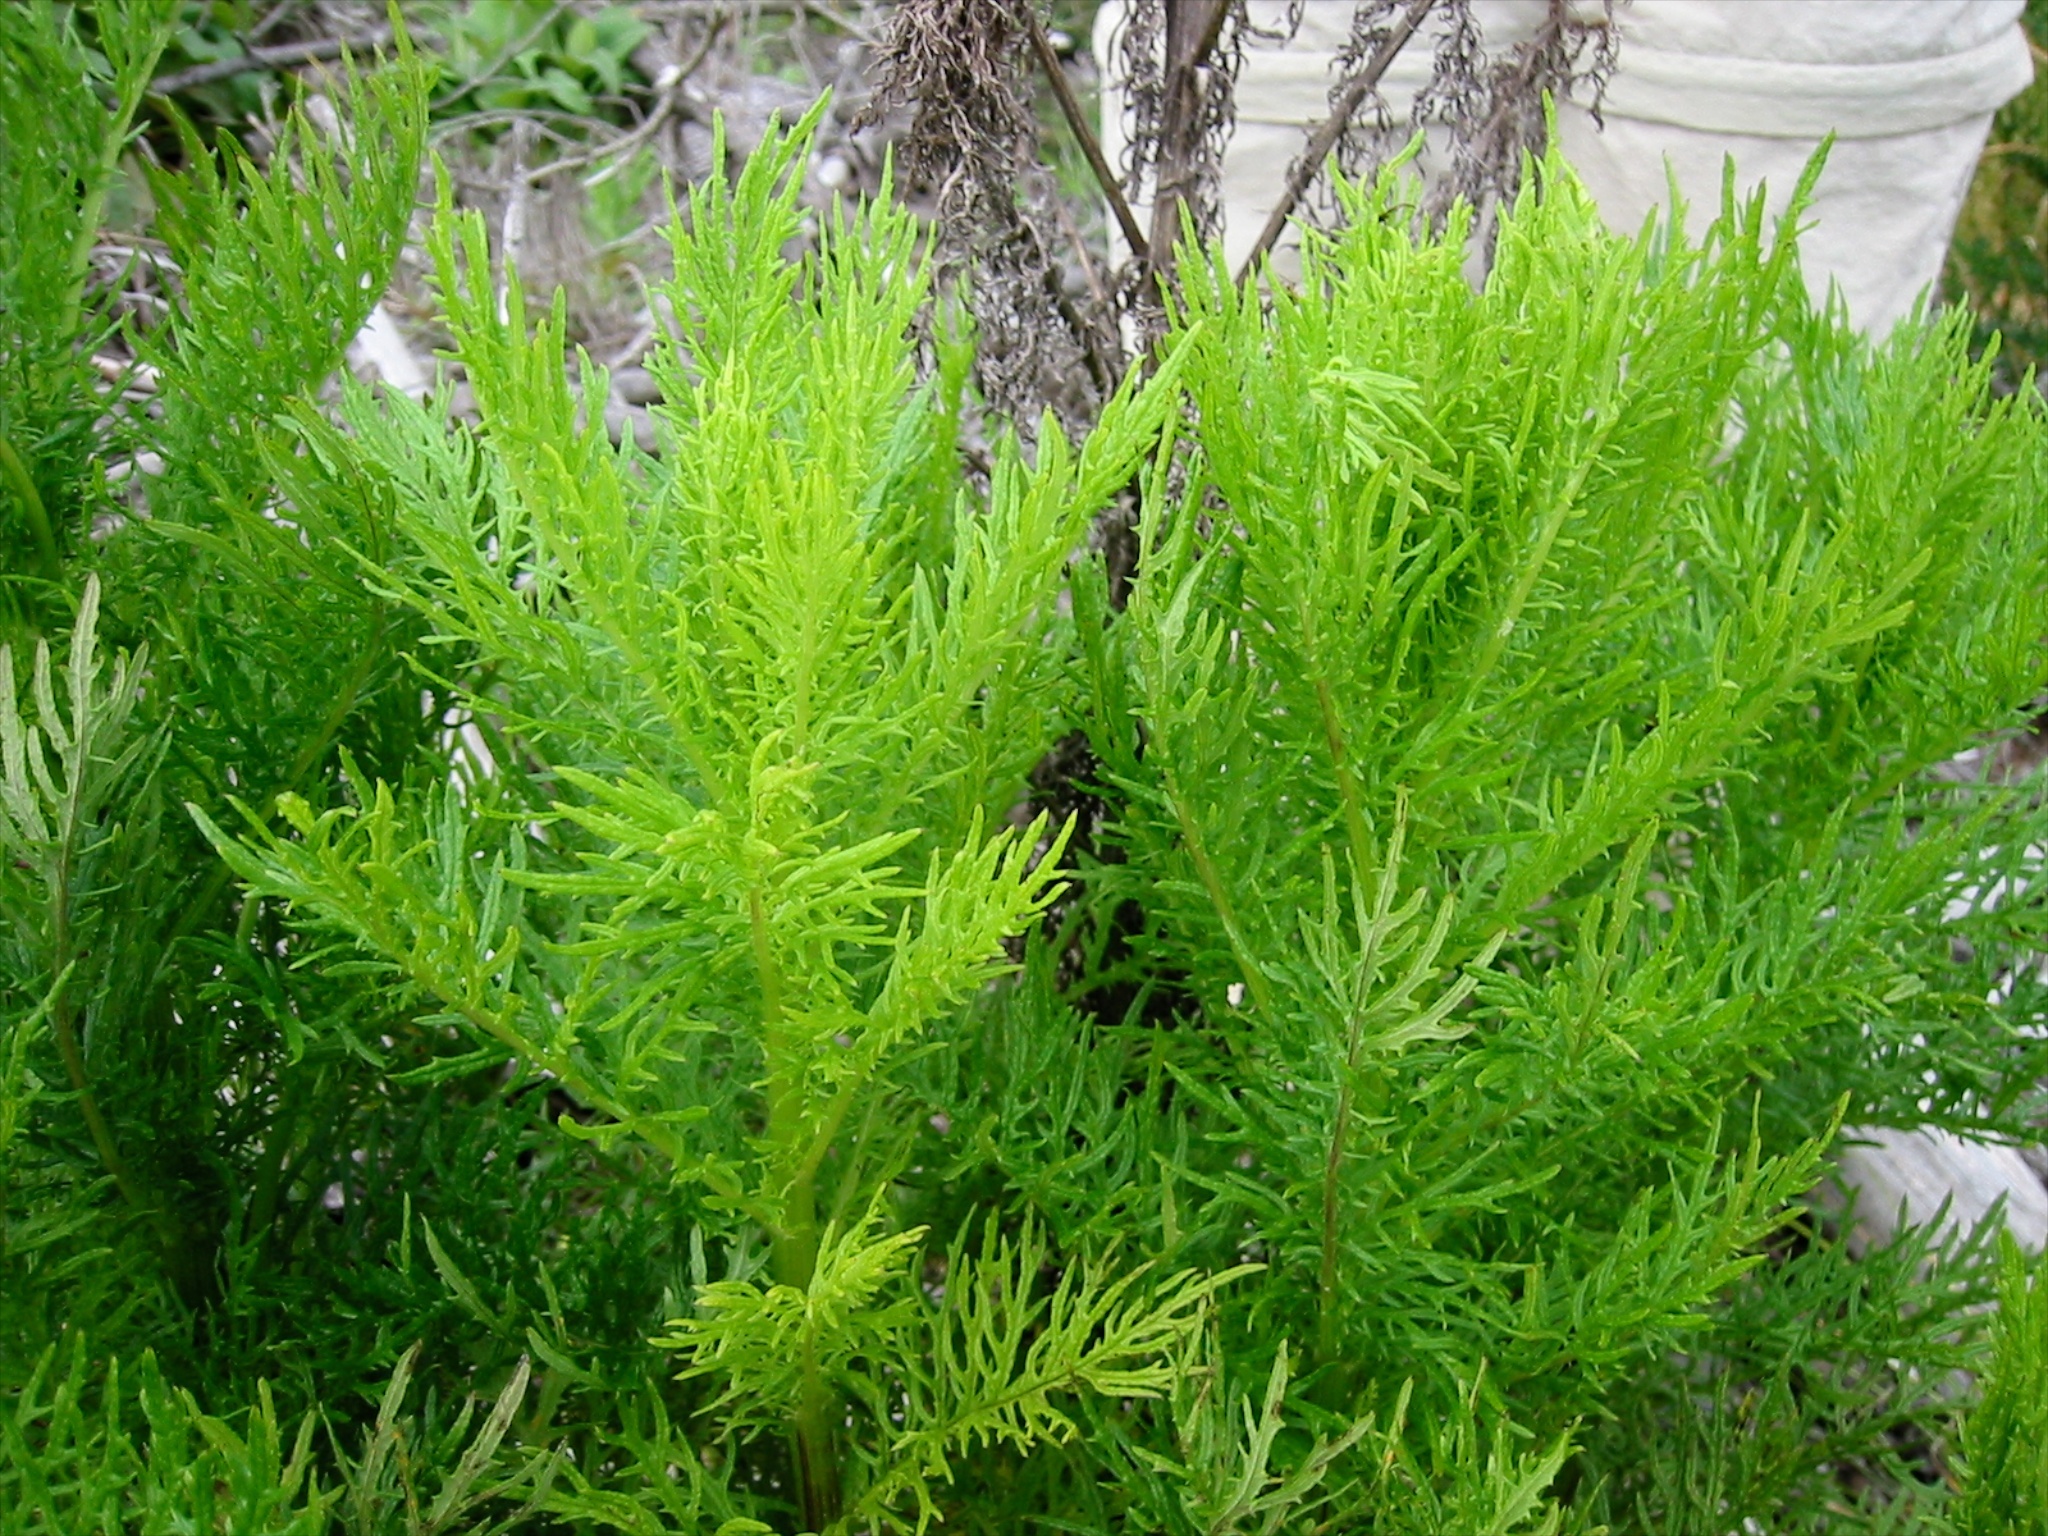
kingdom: Plantae
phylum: Tracheophyta
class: Magnoliopsida
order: Asterales
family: Asteraceae
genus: Senecio
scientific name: Senecio bipinnatisectus
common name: Australian fireweed
